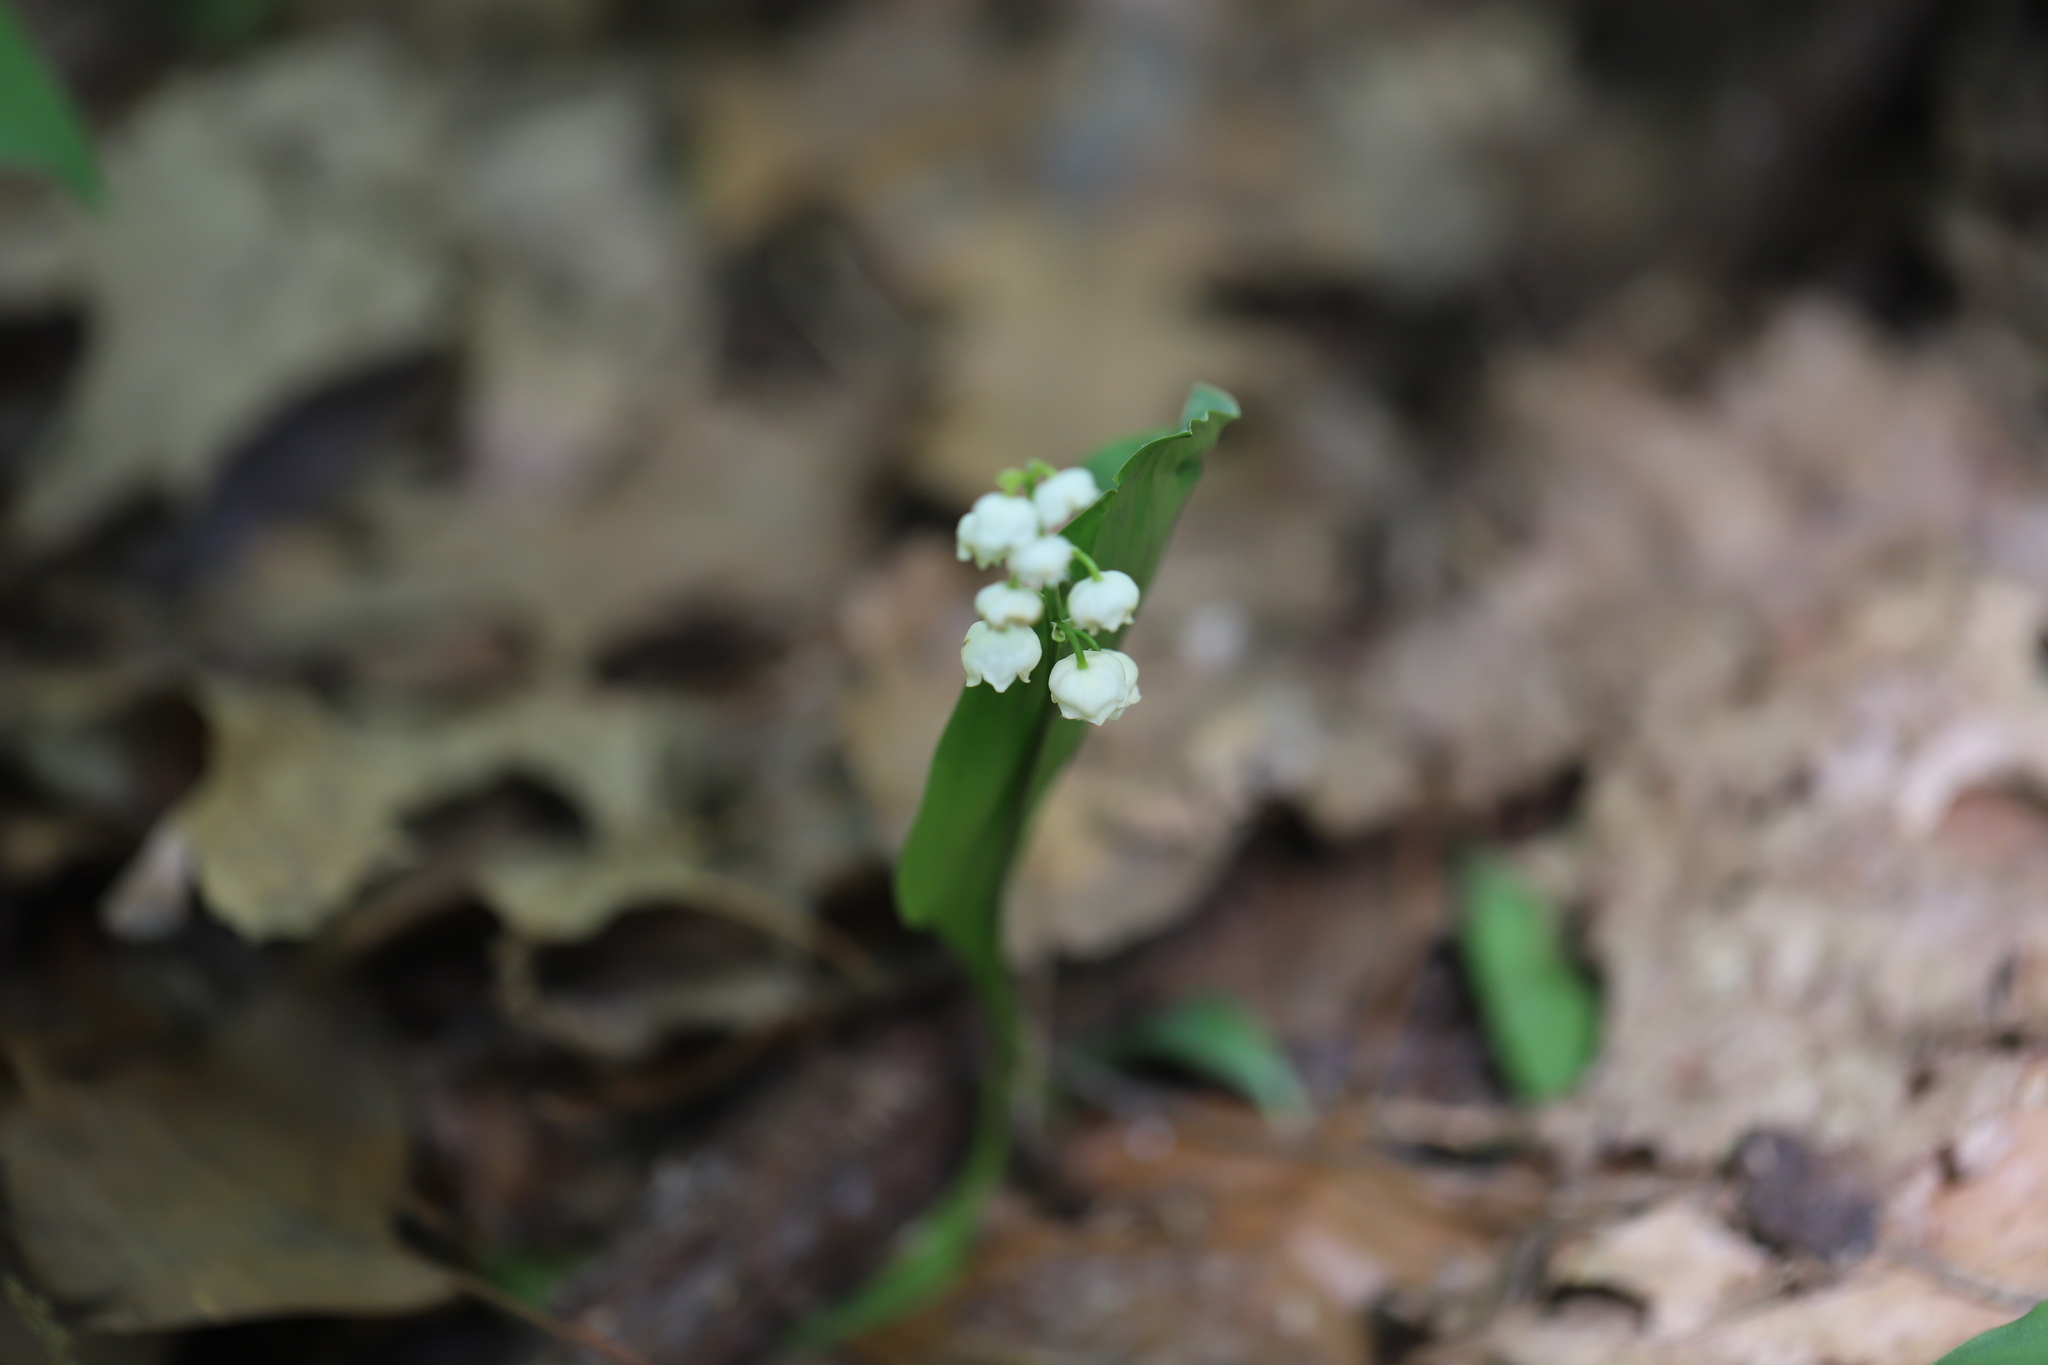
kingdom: Plantae
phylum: Tracheophyta
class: Liliopsida
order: Asparagales
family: Asparagaceae
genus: Convallaria
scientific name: Convallaria majalis
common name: Lily-of-the-valley
